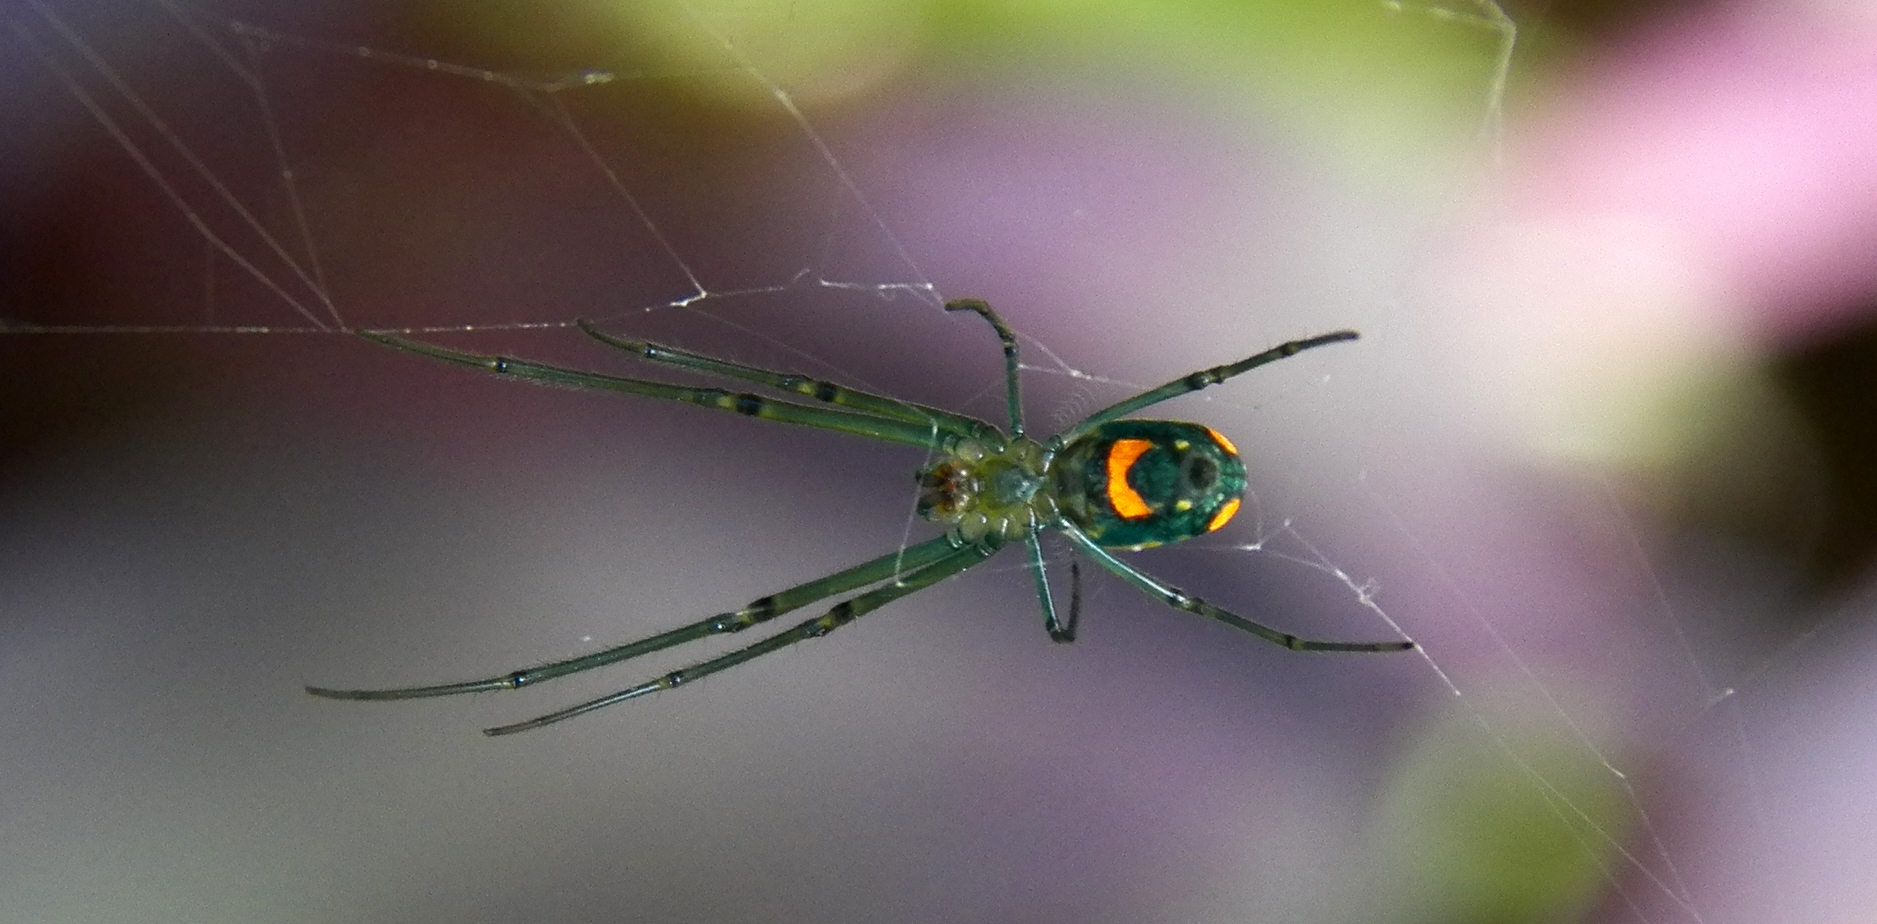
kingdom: Animalia
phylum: Arthropoda
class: Arachnida
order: Araneae
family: Tetragnathidae
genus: Leucauge
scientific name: Leucauge argyrobapta
